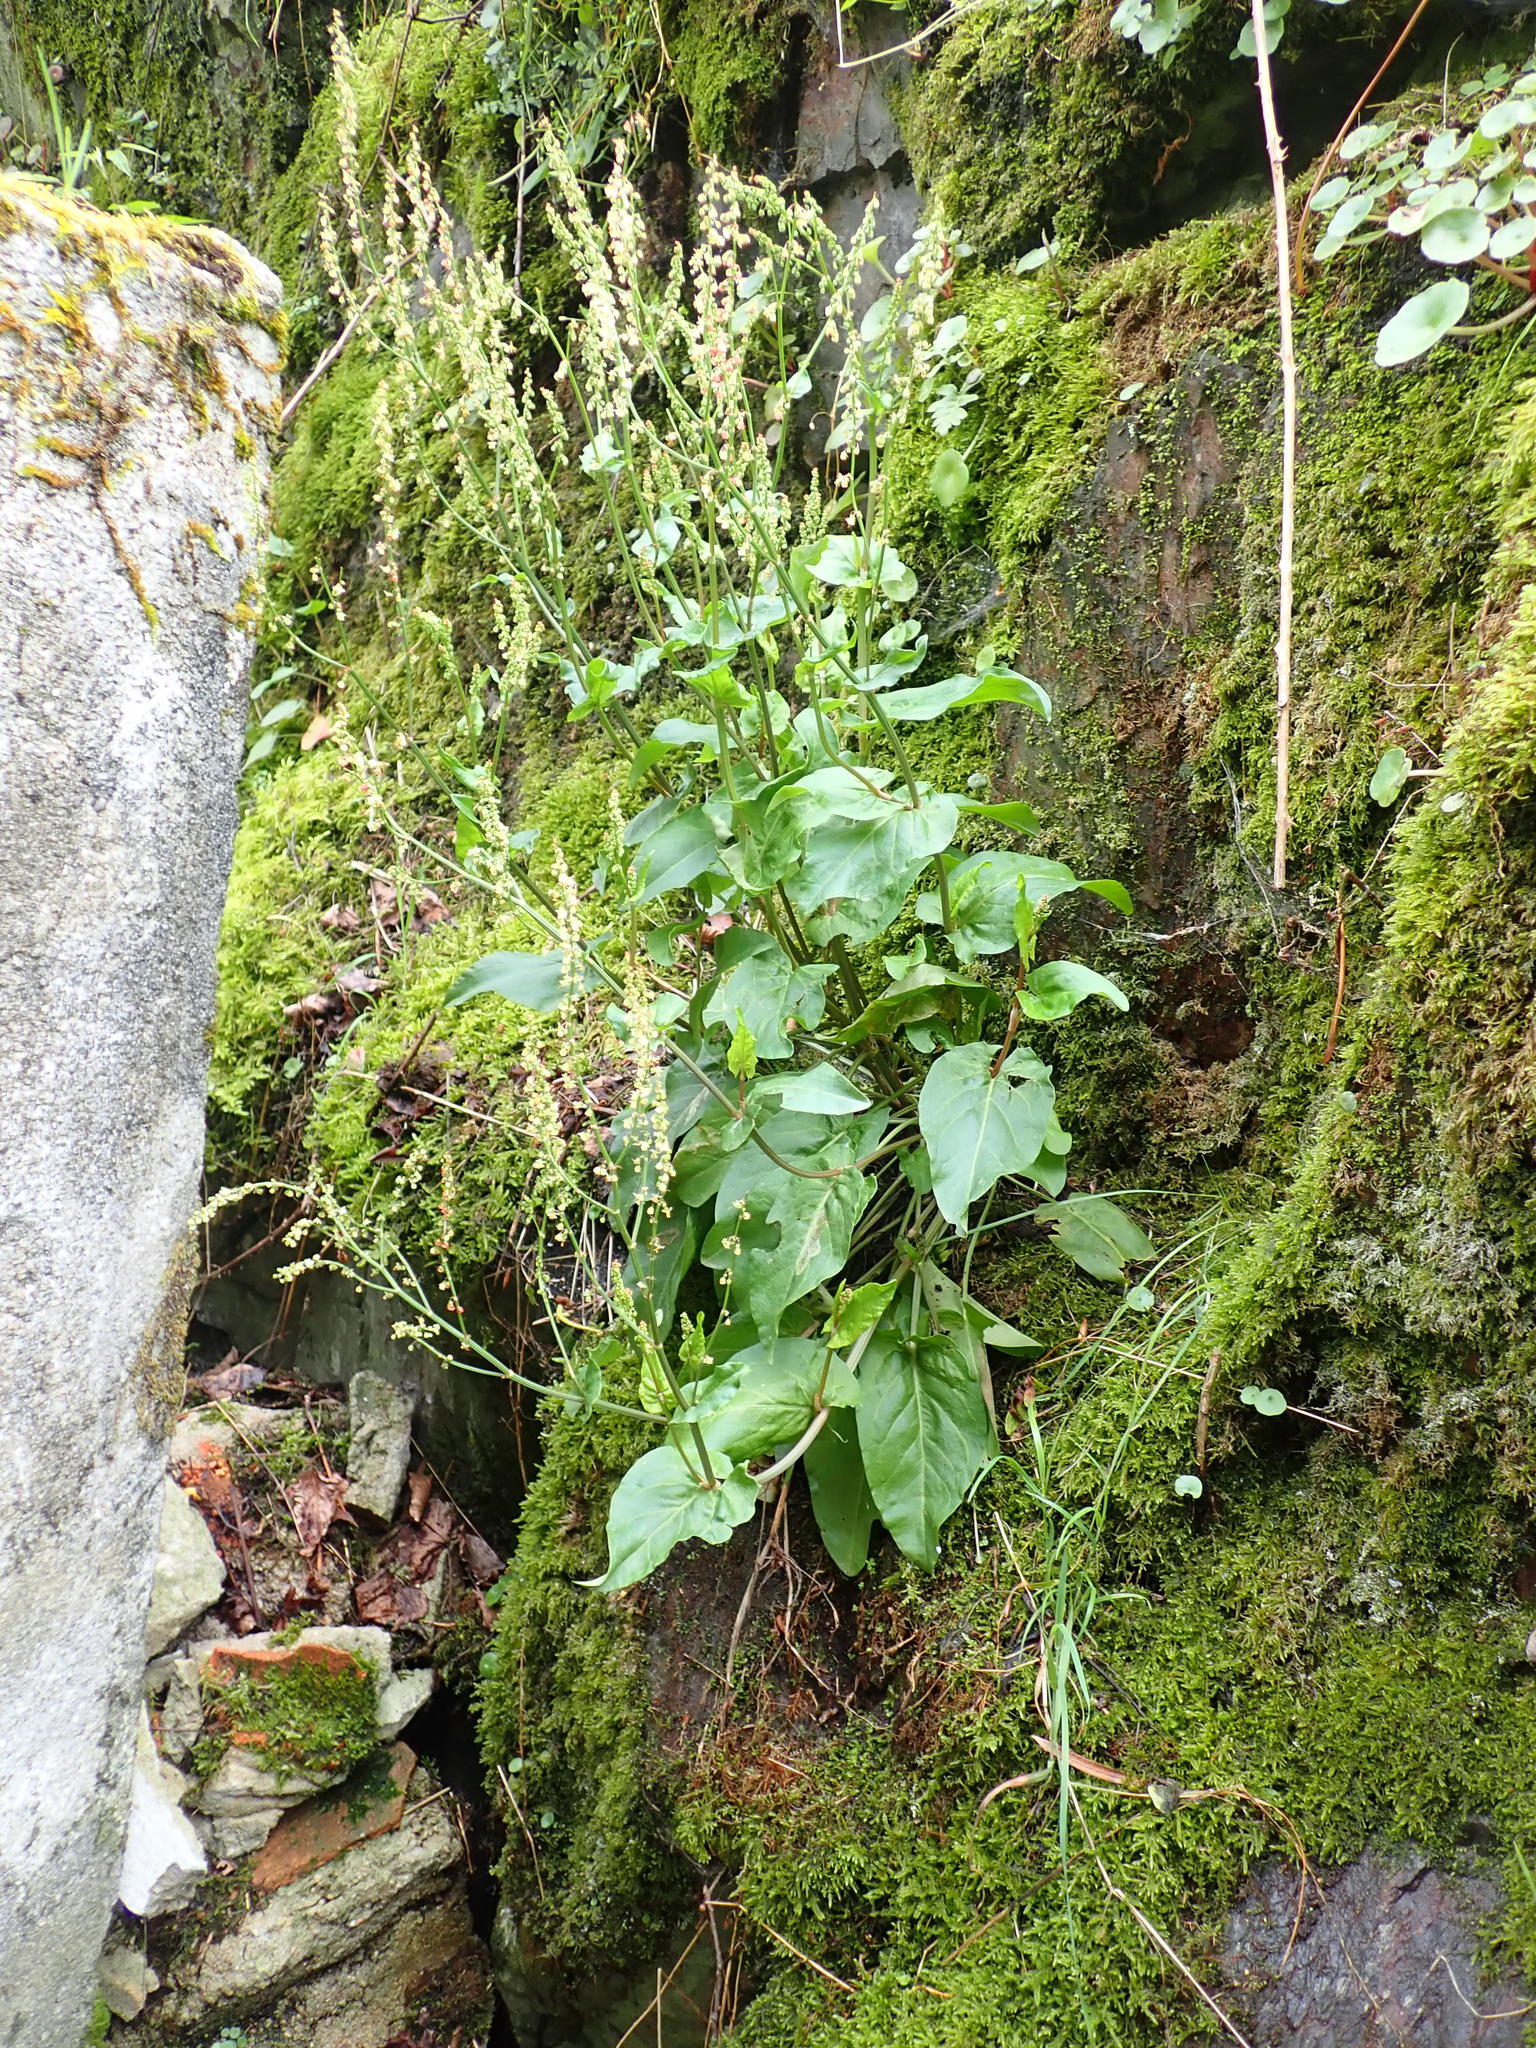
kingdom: Plantae
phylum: Tracheophyta
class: Magnoliopsida
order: Caryophyllales
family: Polygonaceae
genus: Rumex
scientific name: Rumex acetosa
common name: Garden sorrel
